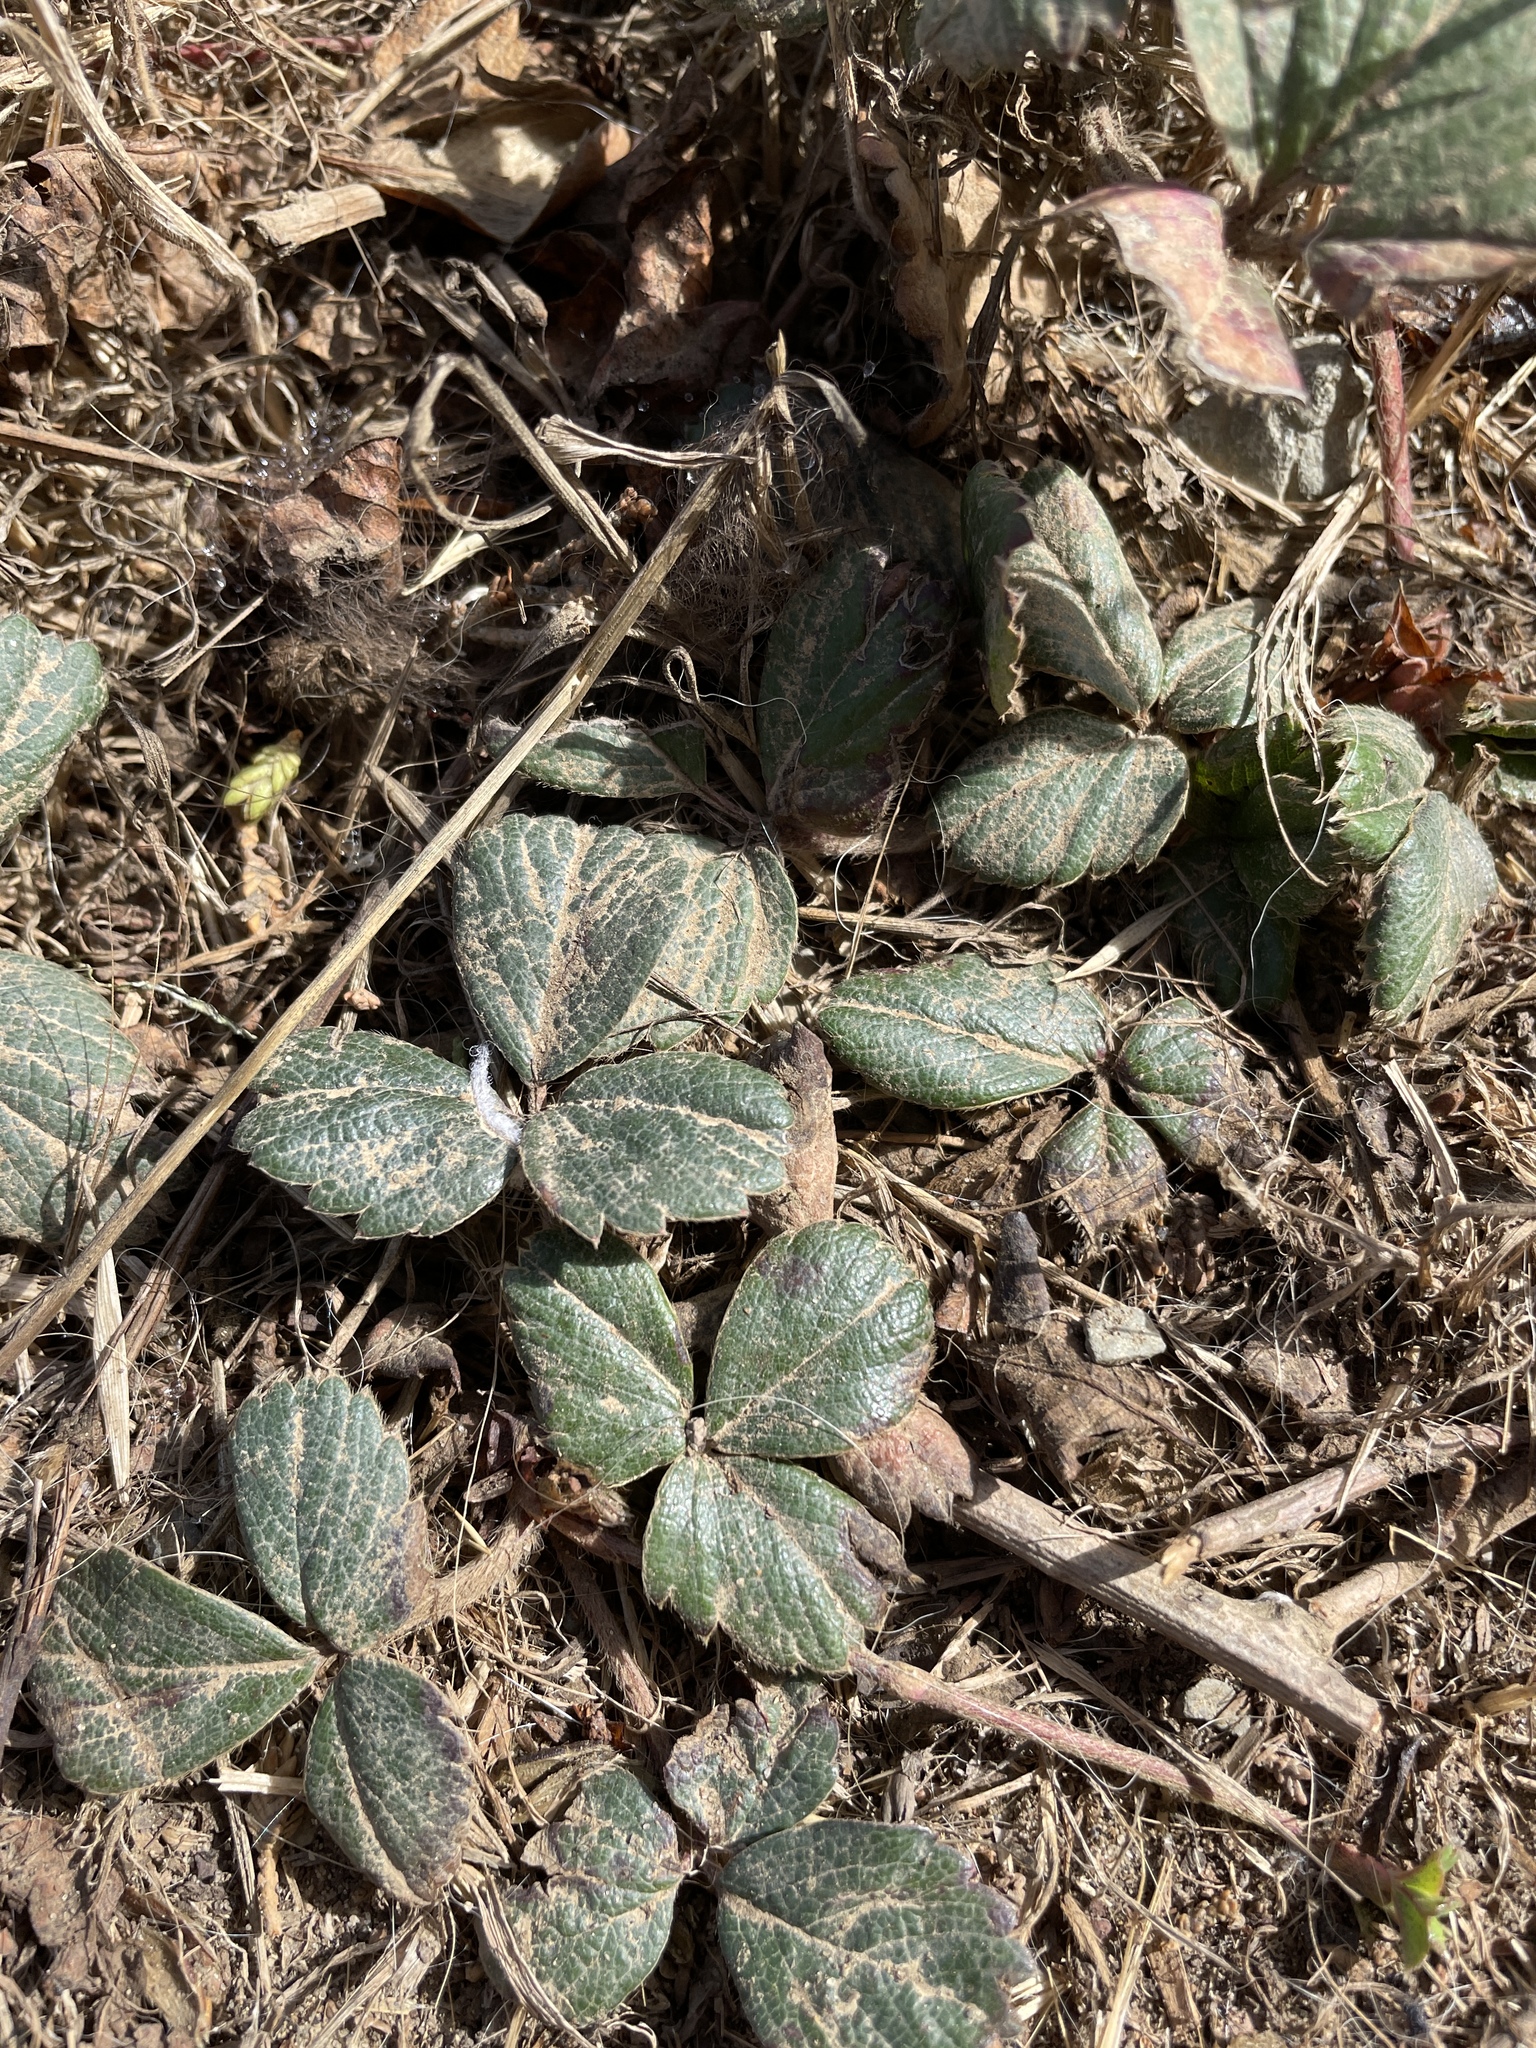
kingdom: Plantae
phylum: Tracheophyta
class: Magnoliopsida
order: Rosales
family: Rosaceae
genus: Fragaria
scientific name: Fragaria chiloensis
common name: Beach strawberry
